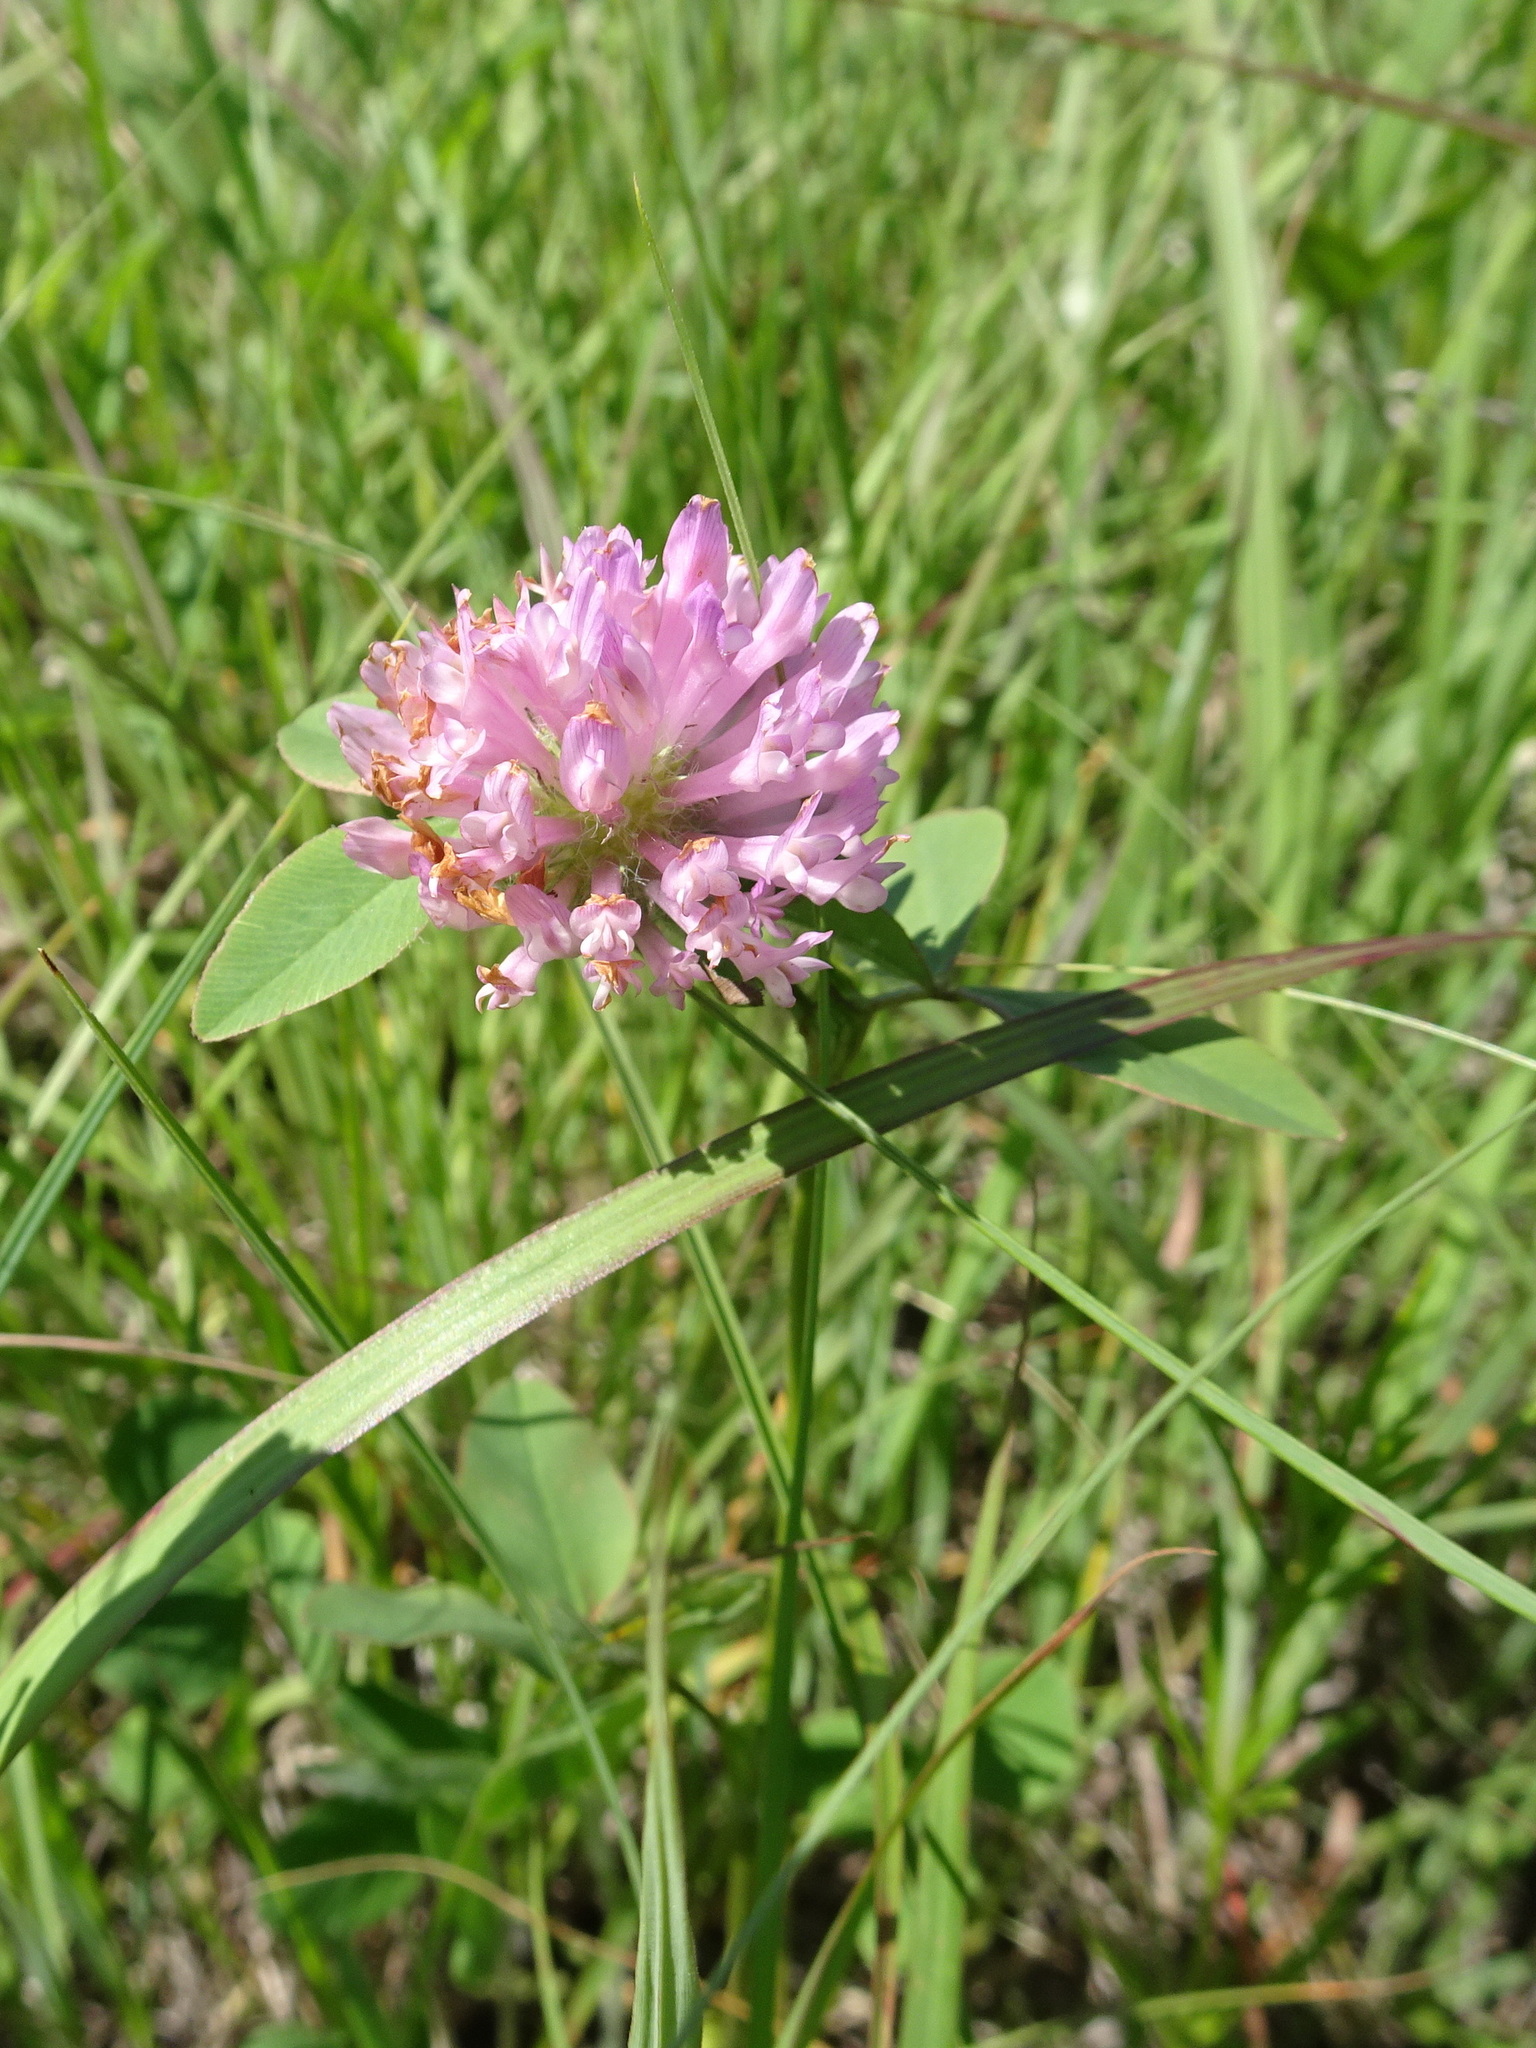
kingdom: Plantae
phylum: Tracheophyta
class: Magnoliopsida
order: Fabales
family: Fabaceae
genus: Trifolium
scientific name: Trifolium pratense
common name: Red clover
